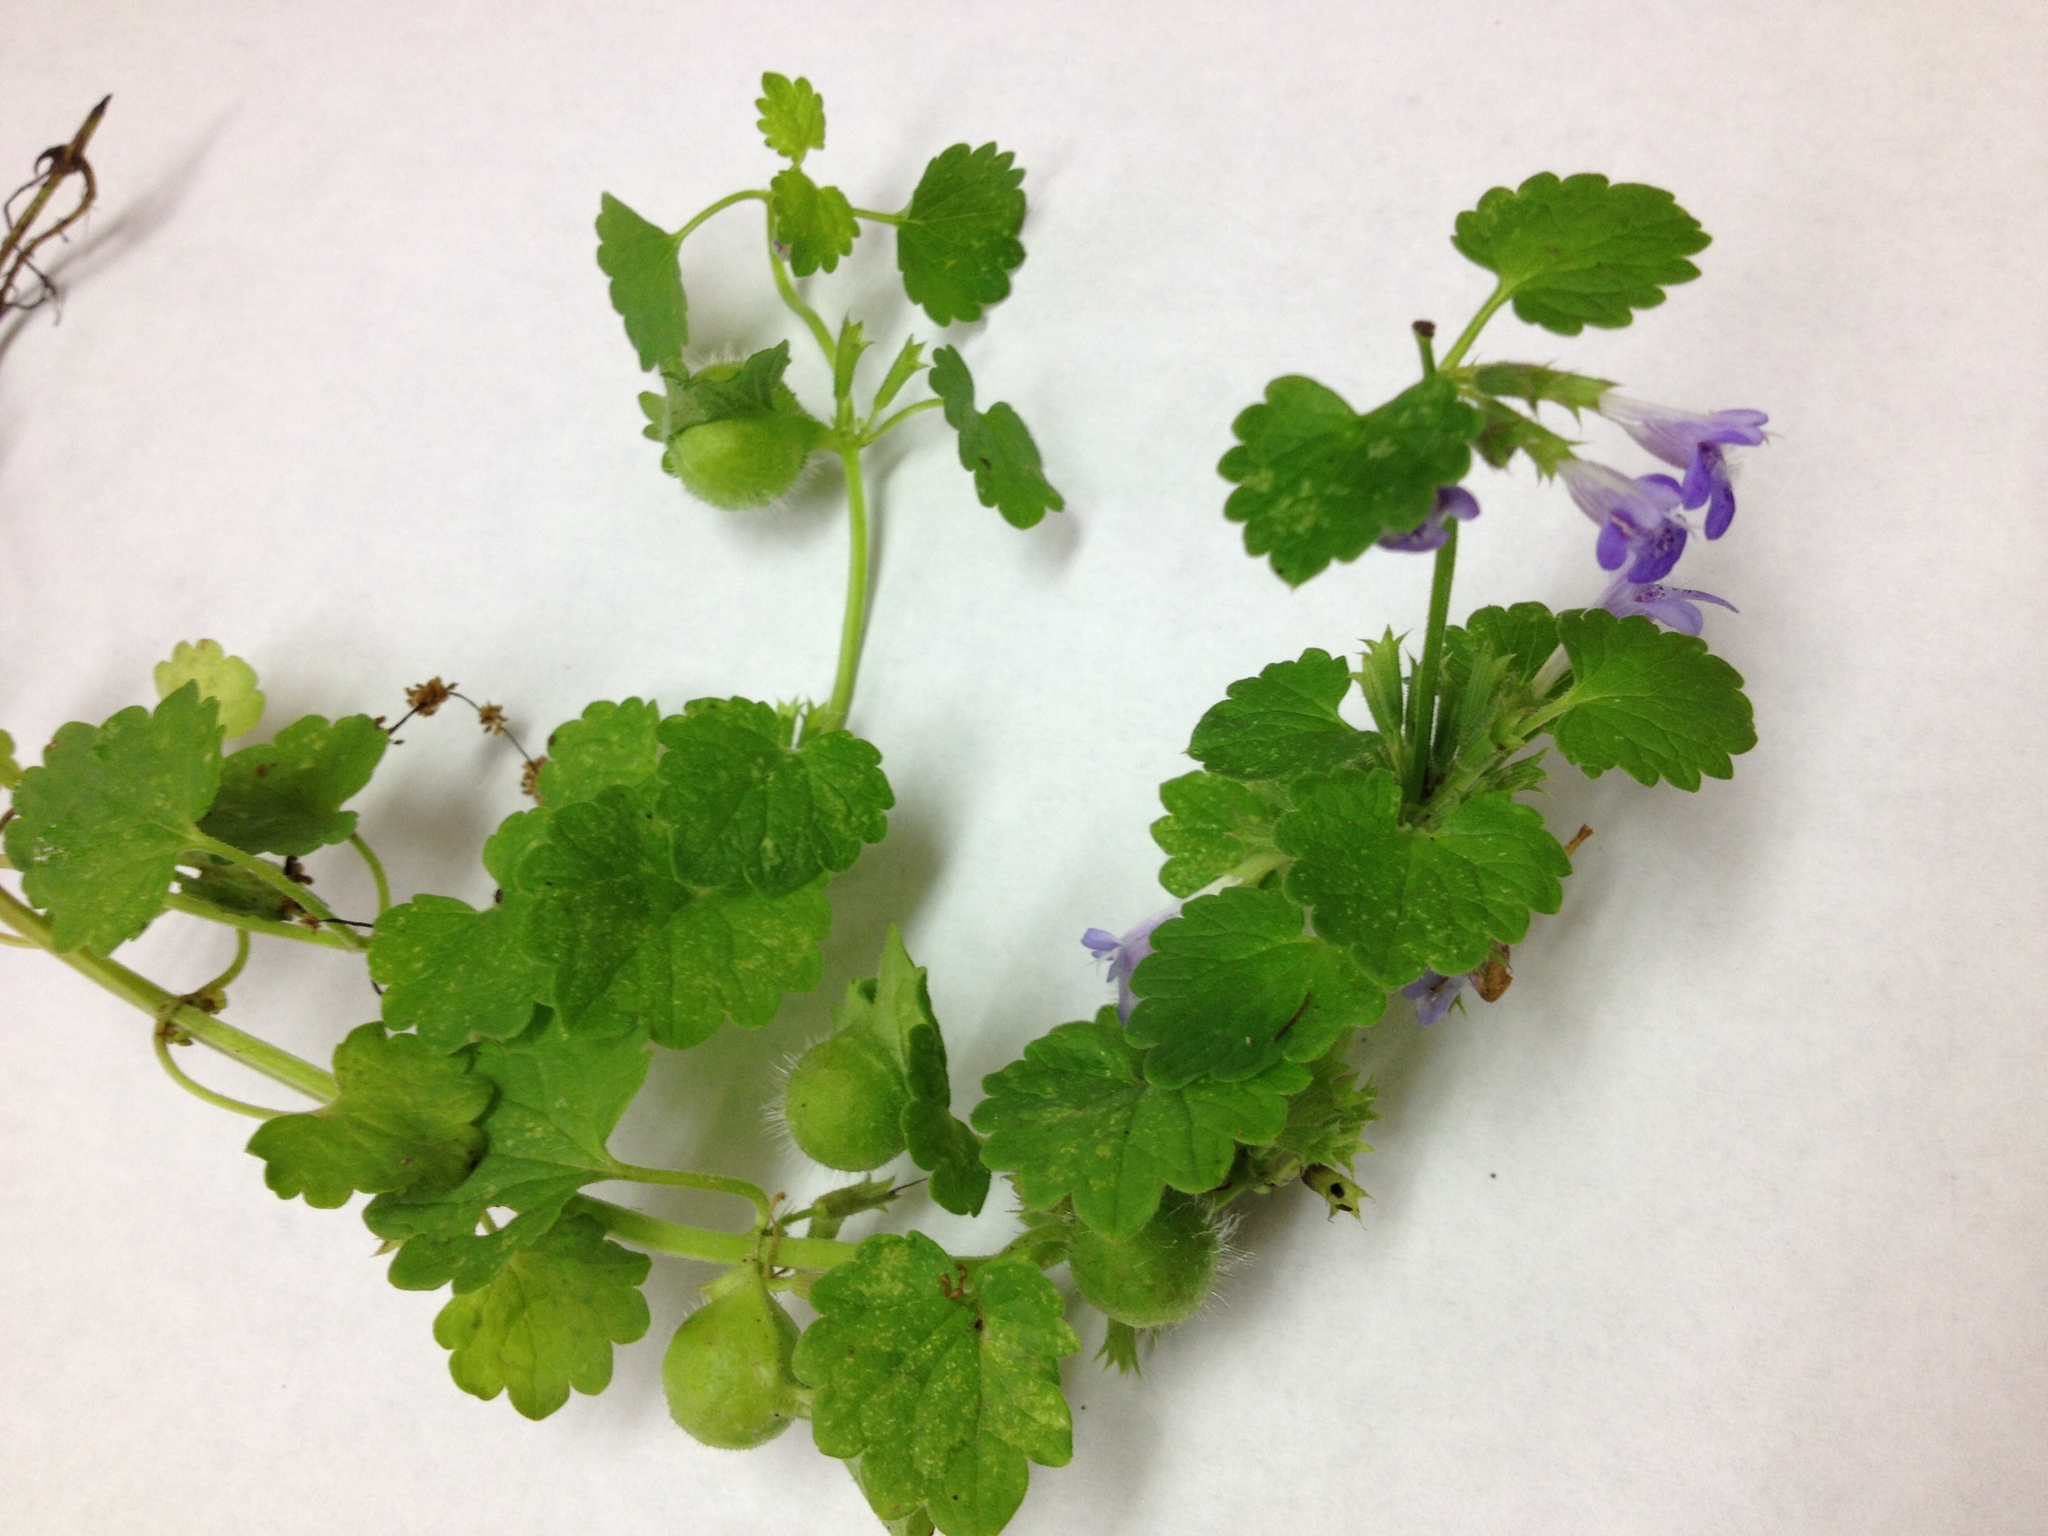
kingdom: Animalia
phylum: Arthropoda
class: Insecta
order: Hymenoptera
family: Cynipidae
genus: Liposthenes
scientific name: Liposthenes glechomae
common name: Gall wasp
